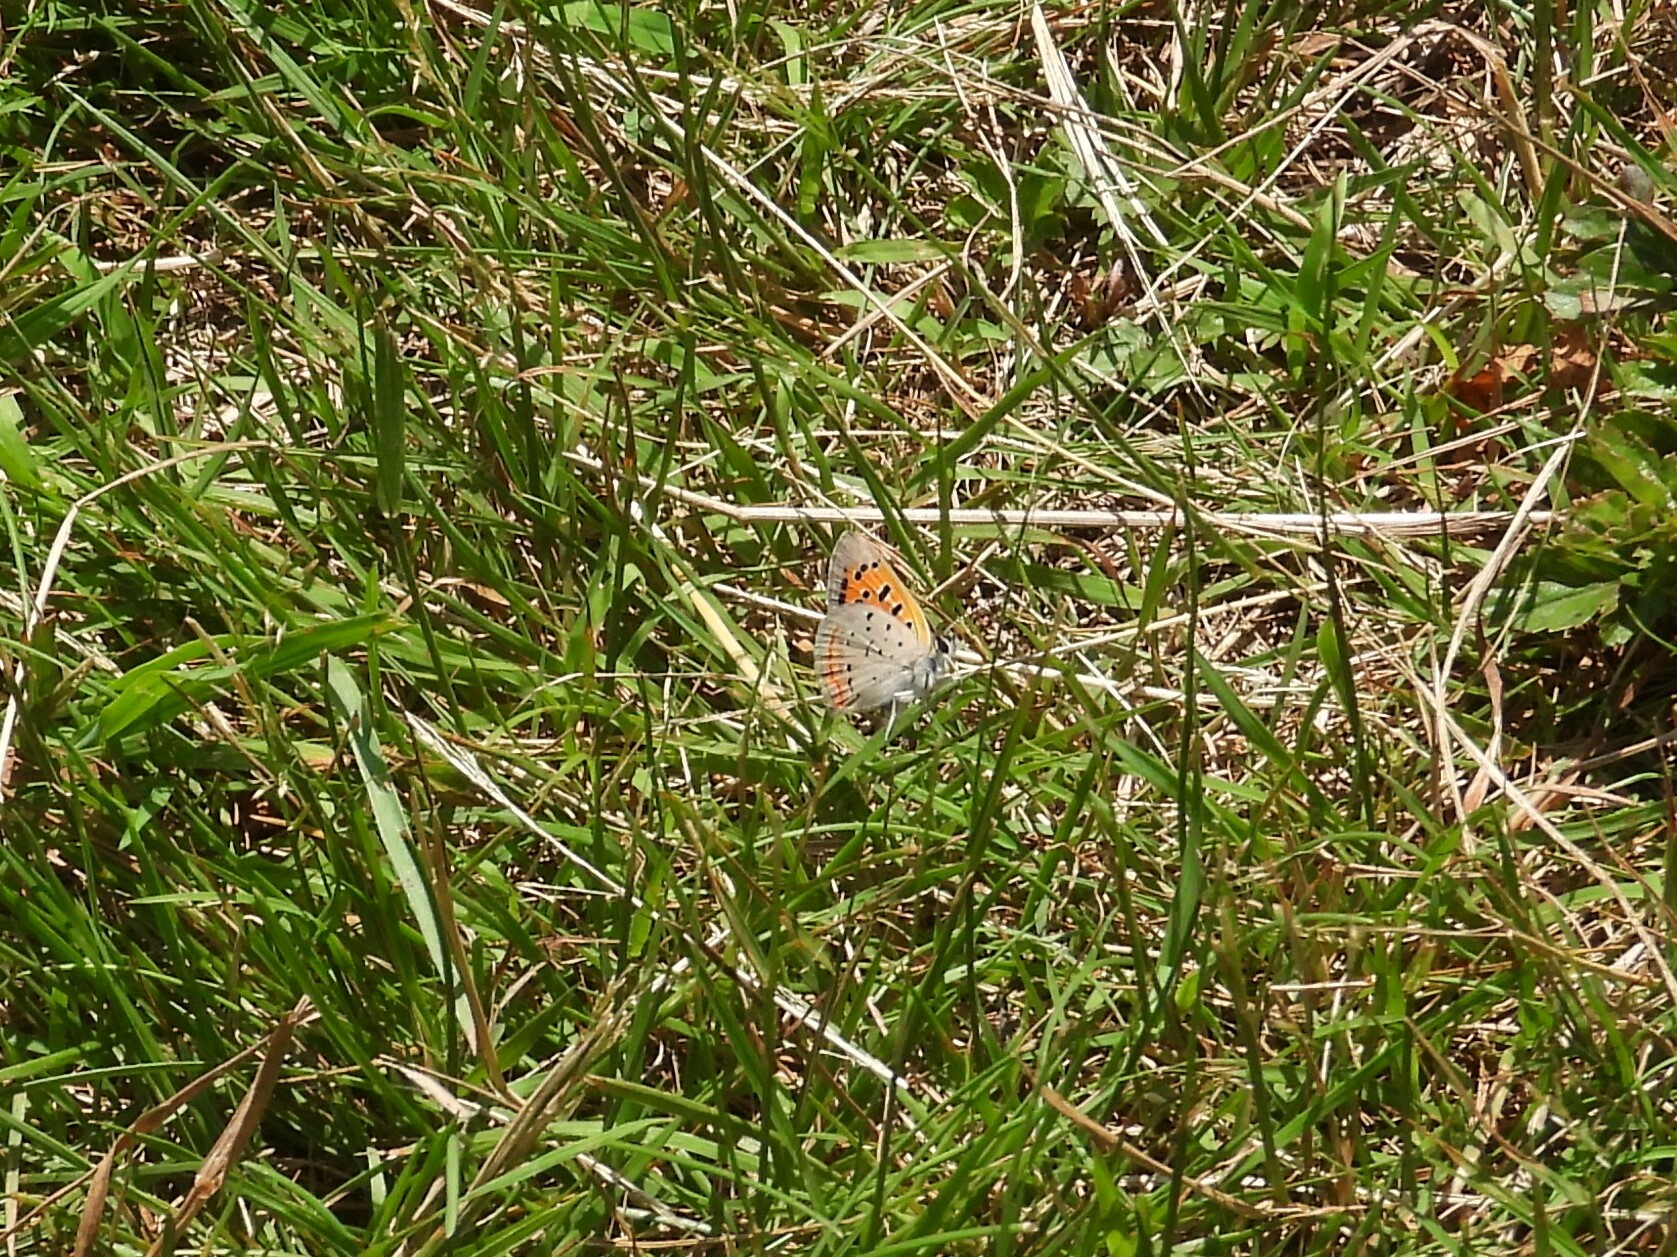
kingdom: Animalia
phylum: Arthropoda
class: Insecta
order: Lepidoptera
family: Lycaenidae
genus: Lycaena
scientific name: Lycaena hypophlaeas
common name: American copper
